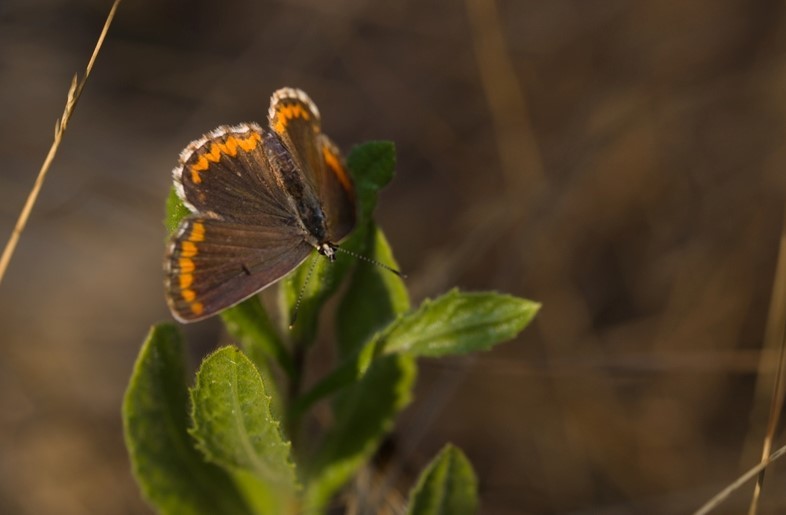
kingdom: Animalia
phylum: Arthropoda
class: Insecta
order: Lepidoptera
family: Lycaenidae
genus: Aricia
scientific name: Aricia cramera
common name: Eschscholtz´s brown  argus
